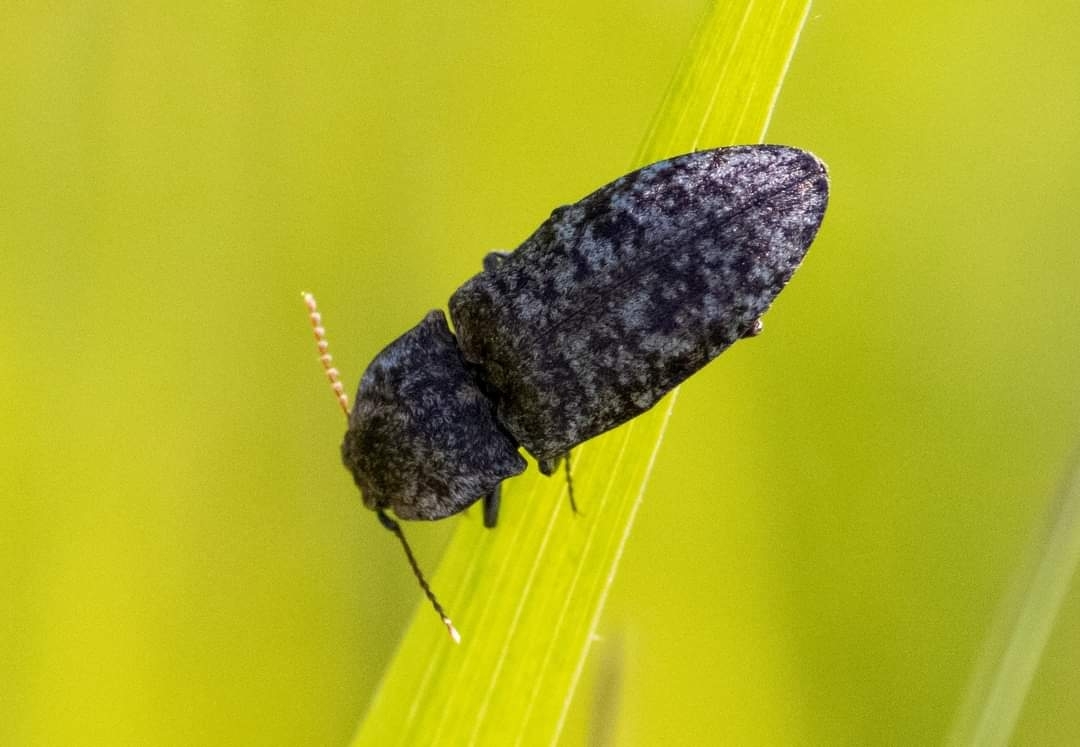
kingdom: Animalia
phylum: Arthropoda
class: Insecta
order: Coleoptera
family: Elateridae
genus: Agrypnus
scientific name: Agrypnus murinus
